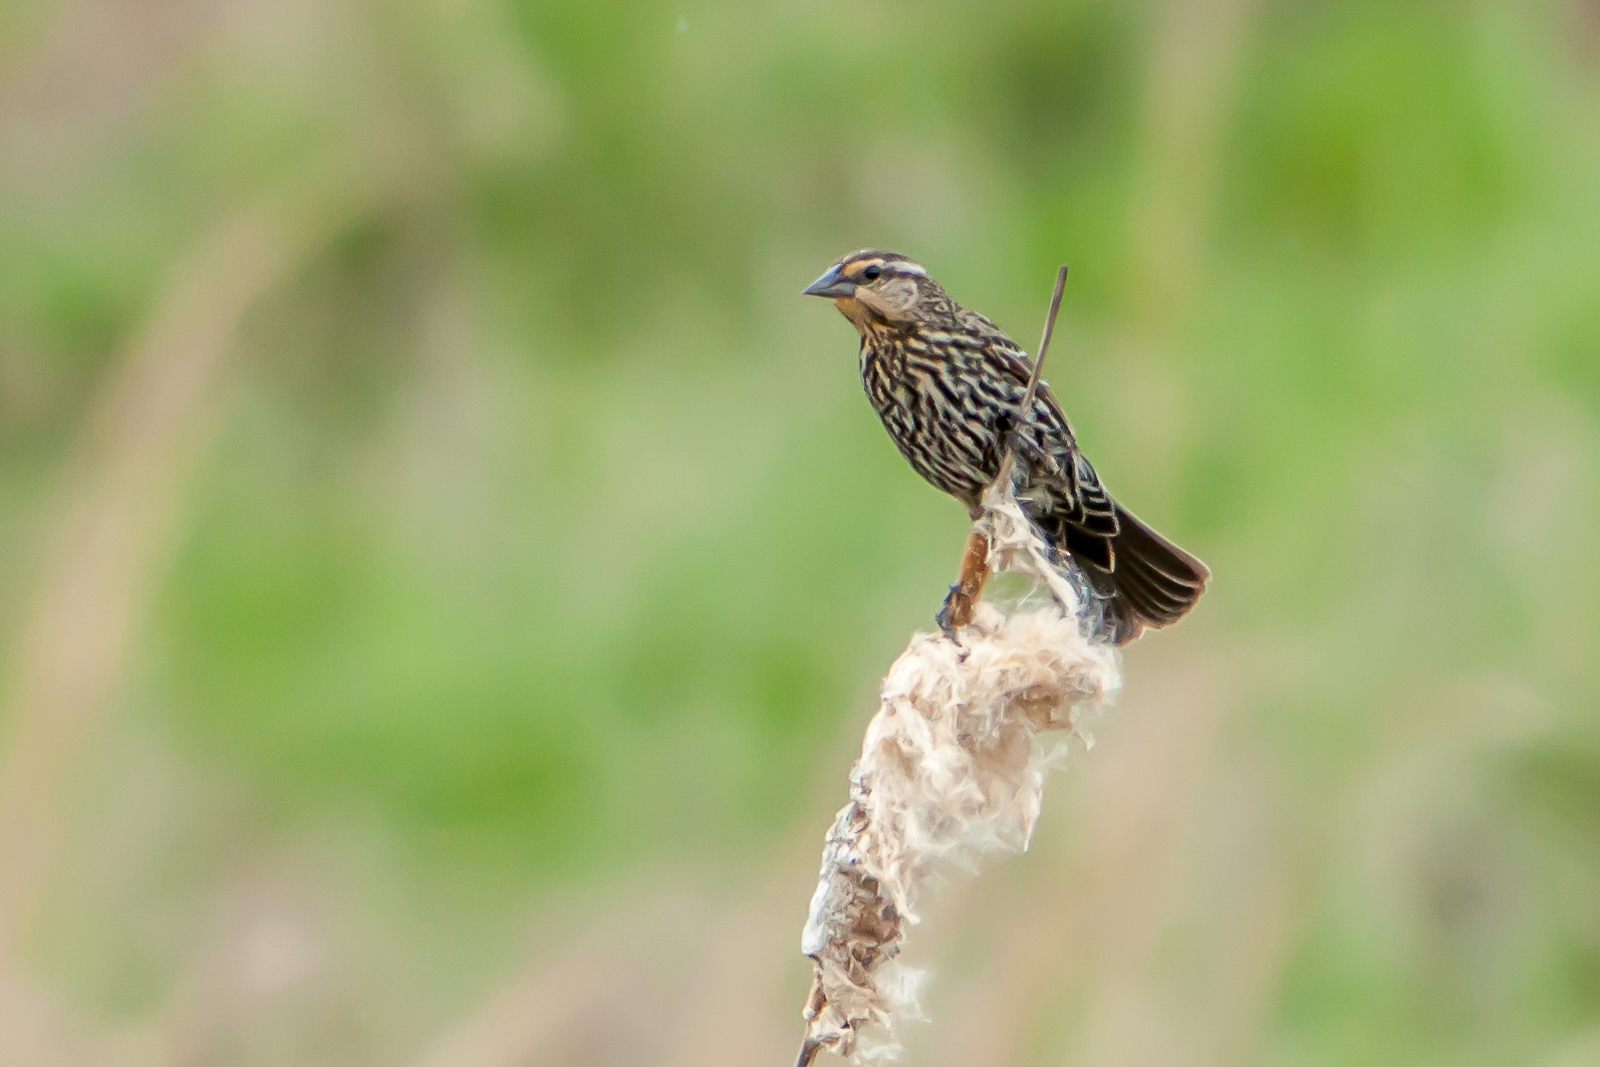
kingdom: Animalia
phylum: Chordata
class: Aves
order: Passeriformes
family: Icteridae
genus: Agelaius
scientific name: Agelaius phoeniceus
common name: Red-winged blackbird
